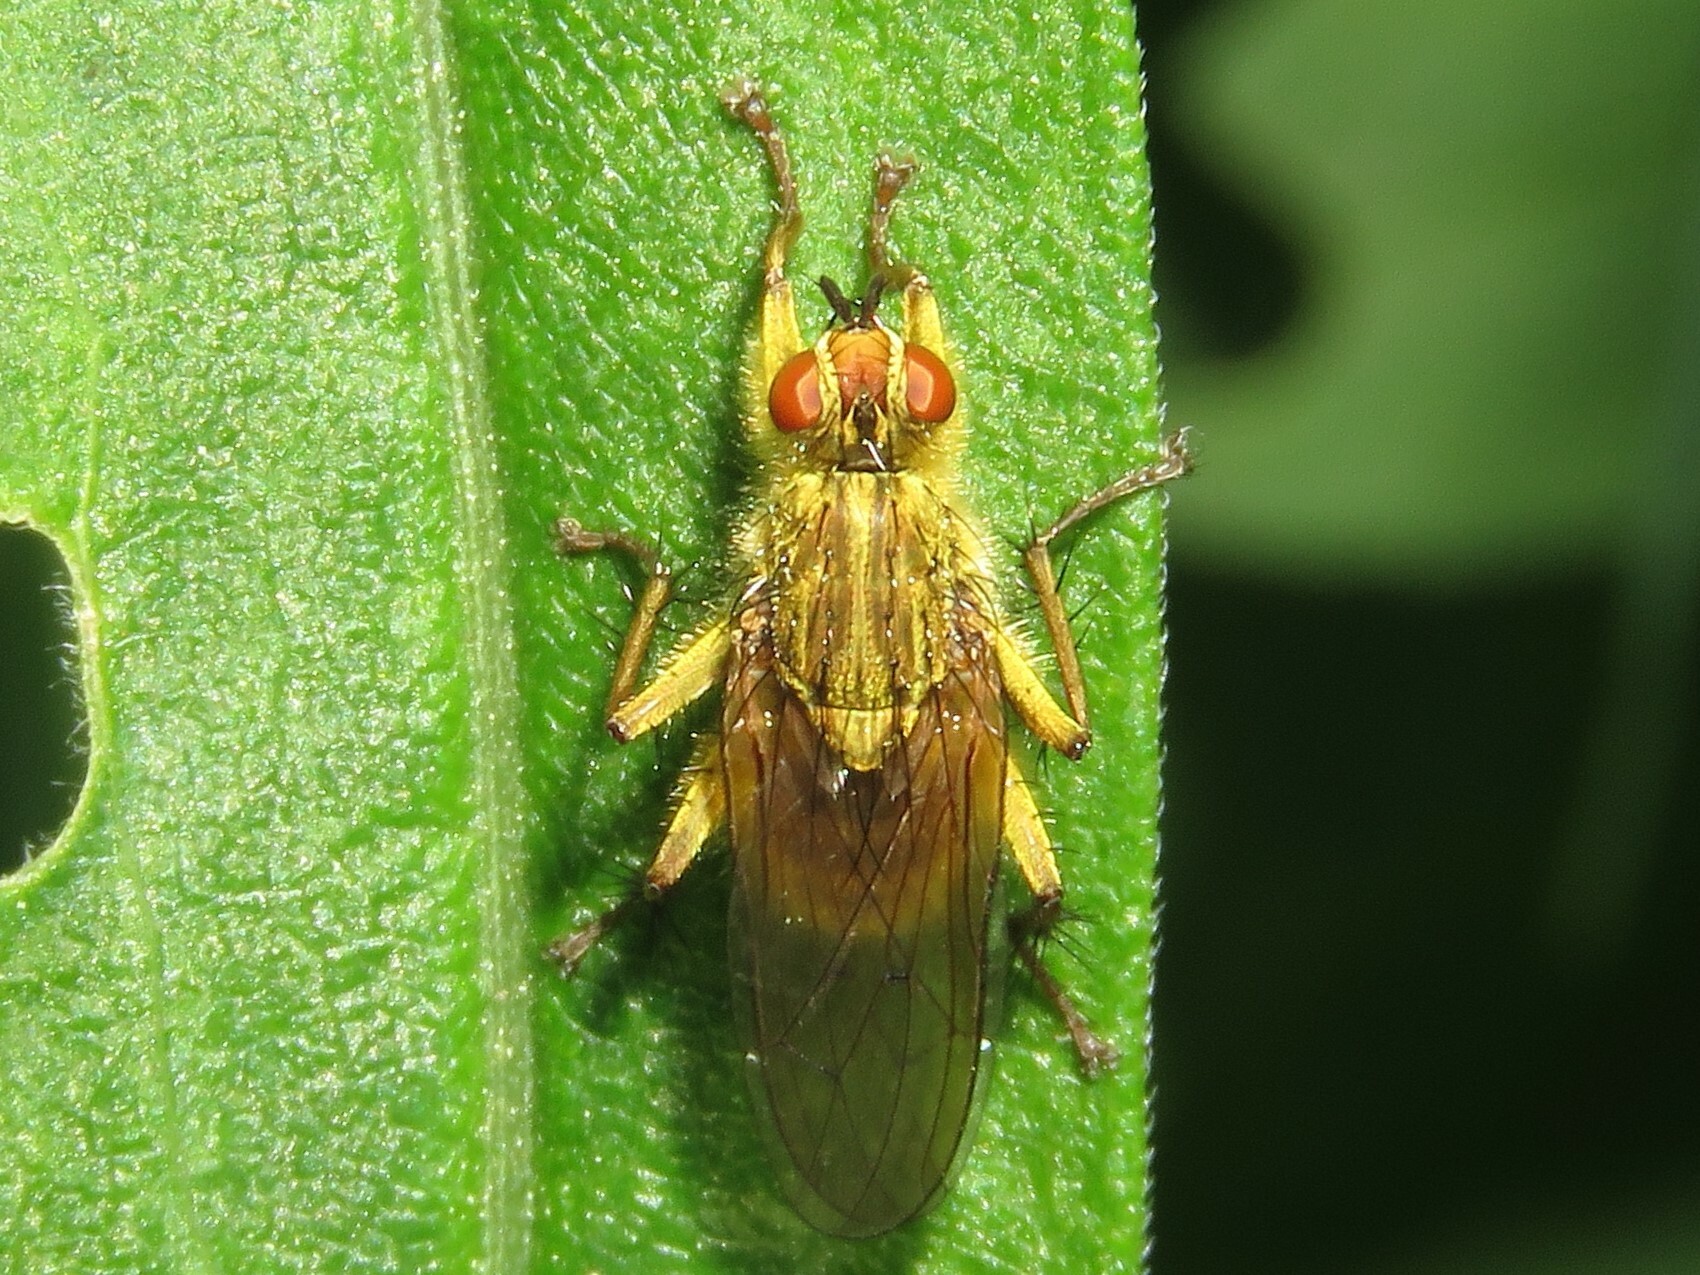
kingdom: Animalia
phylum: Arthropoda
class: Insecta
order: Diptera
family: Scathophagidae
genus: Scathophaga
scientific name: Scathophaga stercoraria
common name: Yellow dung fly
